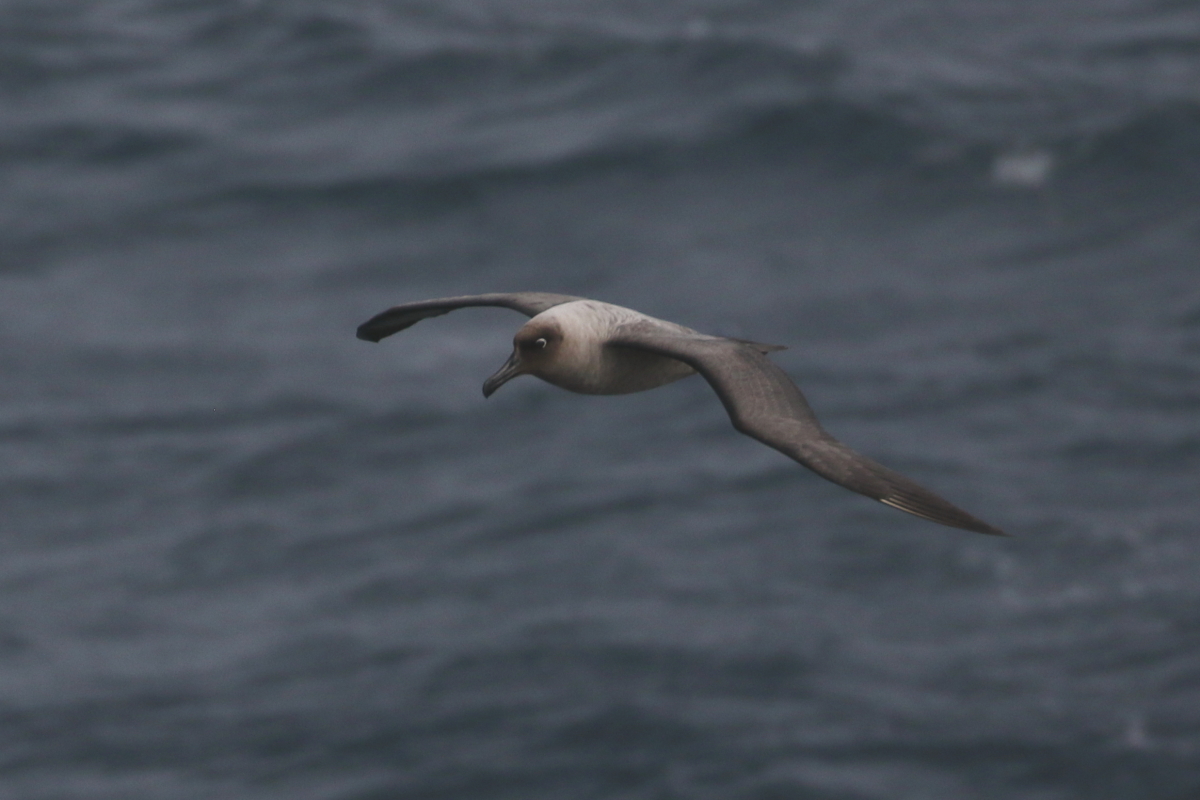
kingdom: Animalia
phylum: Chordata
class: Aves
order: Procellariiformes
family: Diomedeidae
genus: Phoebetria
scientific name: Phoebetria palpebrata
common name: Light-mantled albatross
